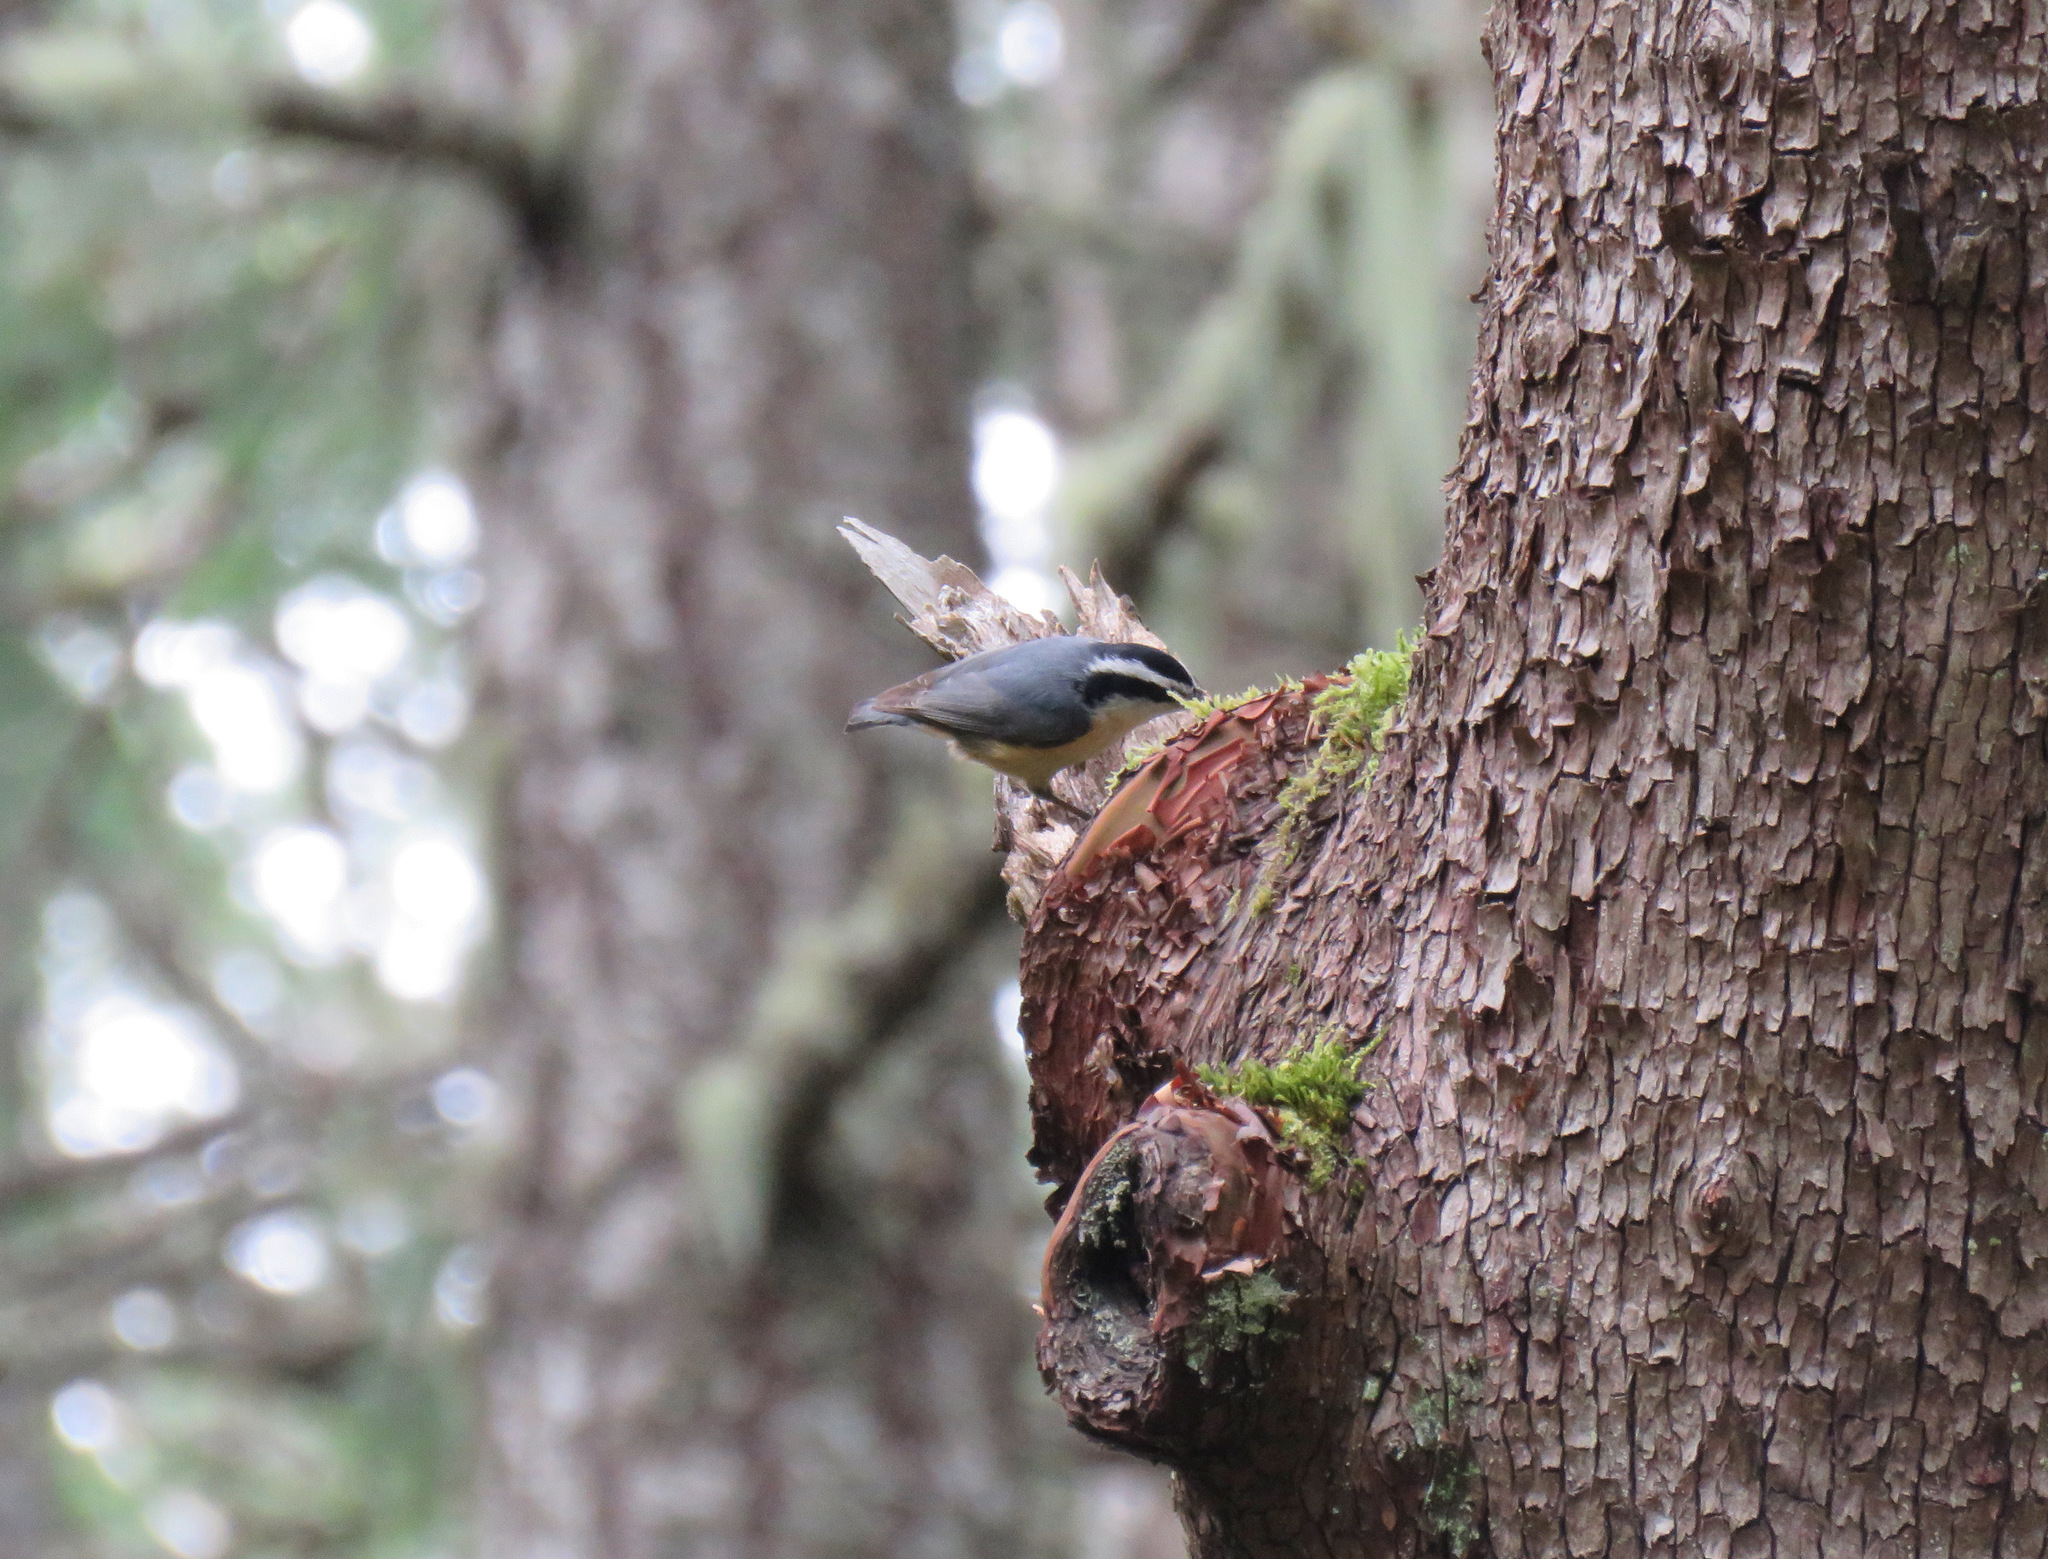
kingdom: Animalia
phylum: Chordata
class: Aves
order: Passeriformes
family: Sittidae
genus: Sitta
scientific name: Sitta canadensis
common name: Red-breasted nuthatch
